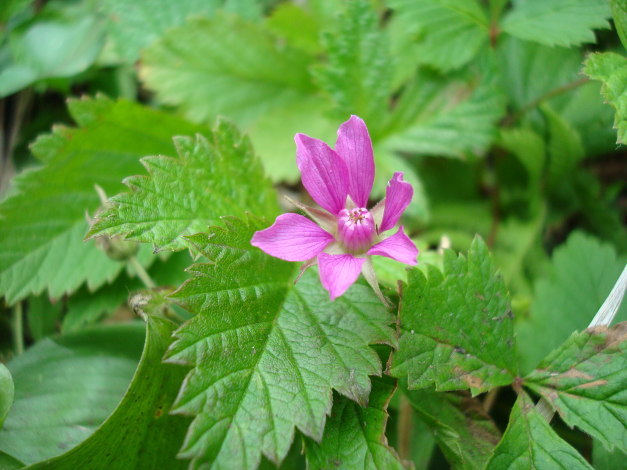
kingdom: Plantae
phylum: Tracheophyta
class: Magnoliopsida
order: Rosales
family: Rosaceae
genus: Rubus
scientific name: Rubus arcticus
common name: Arctic bramble
